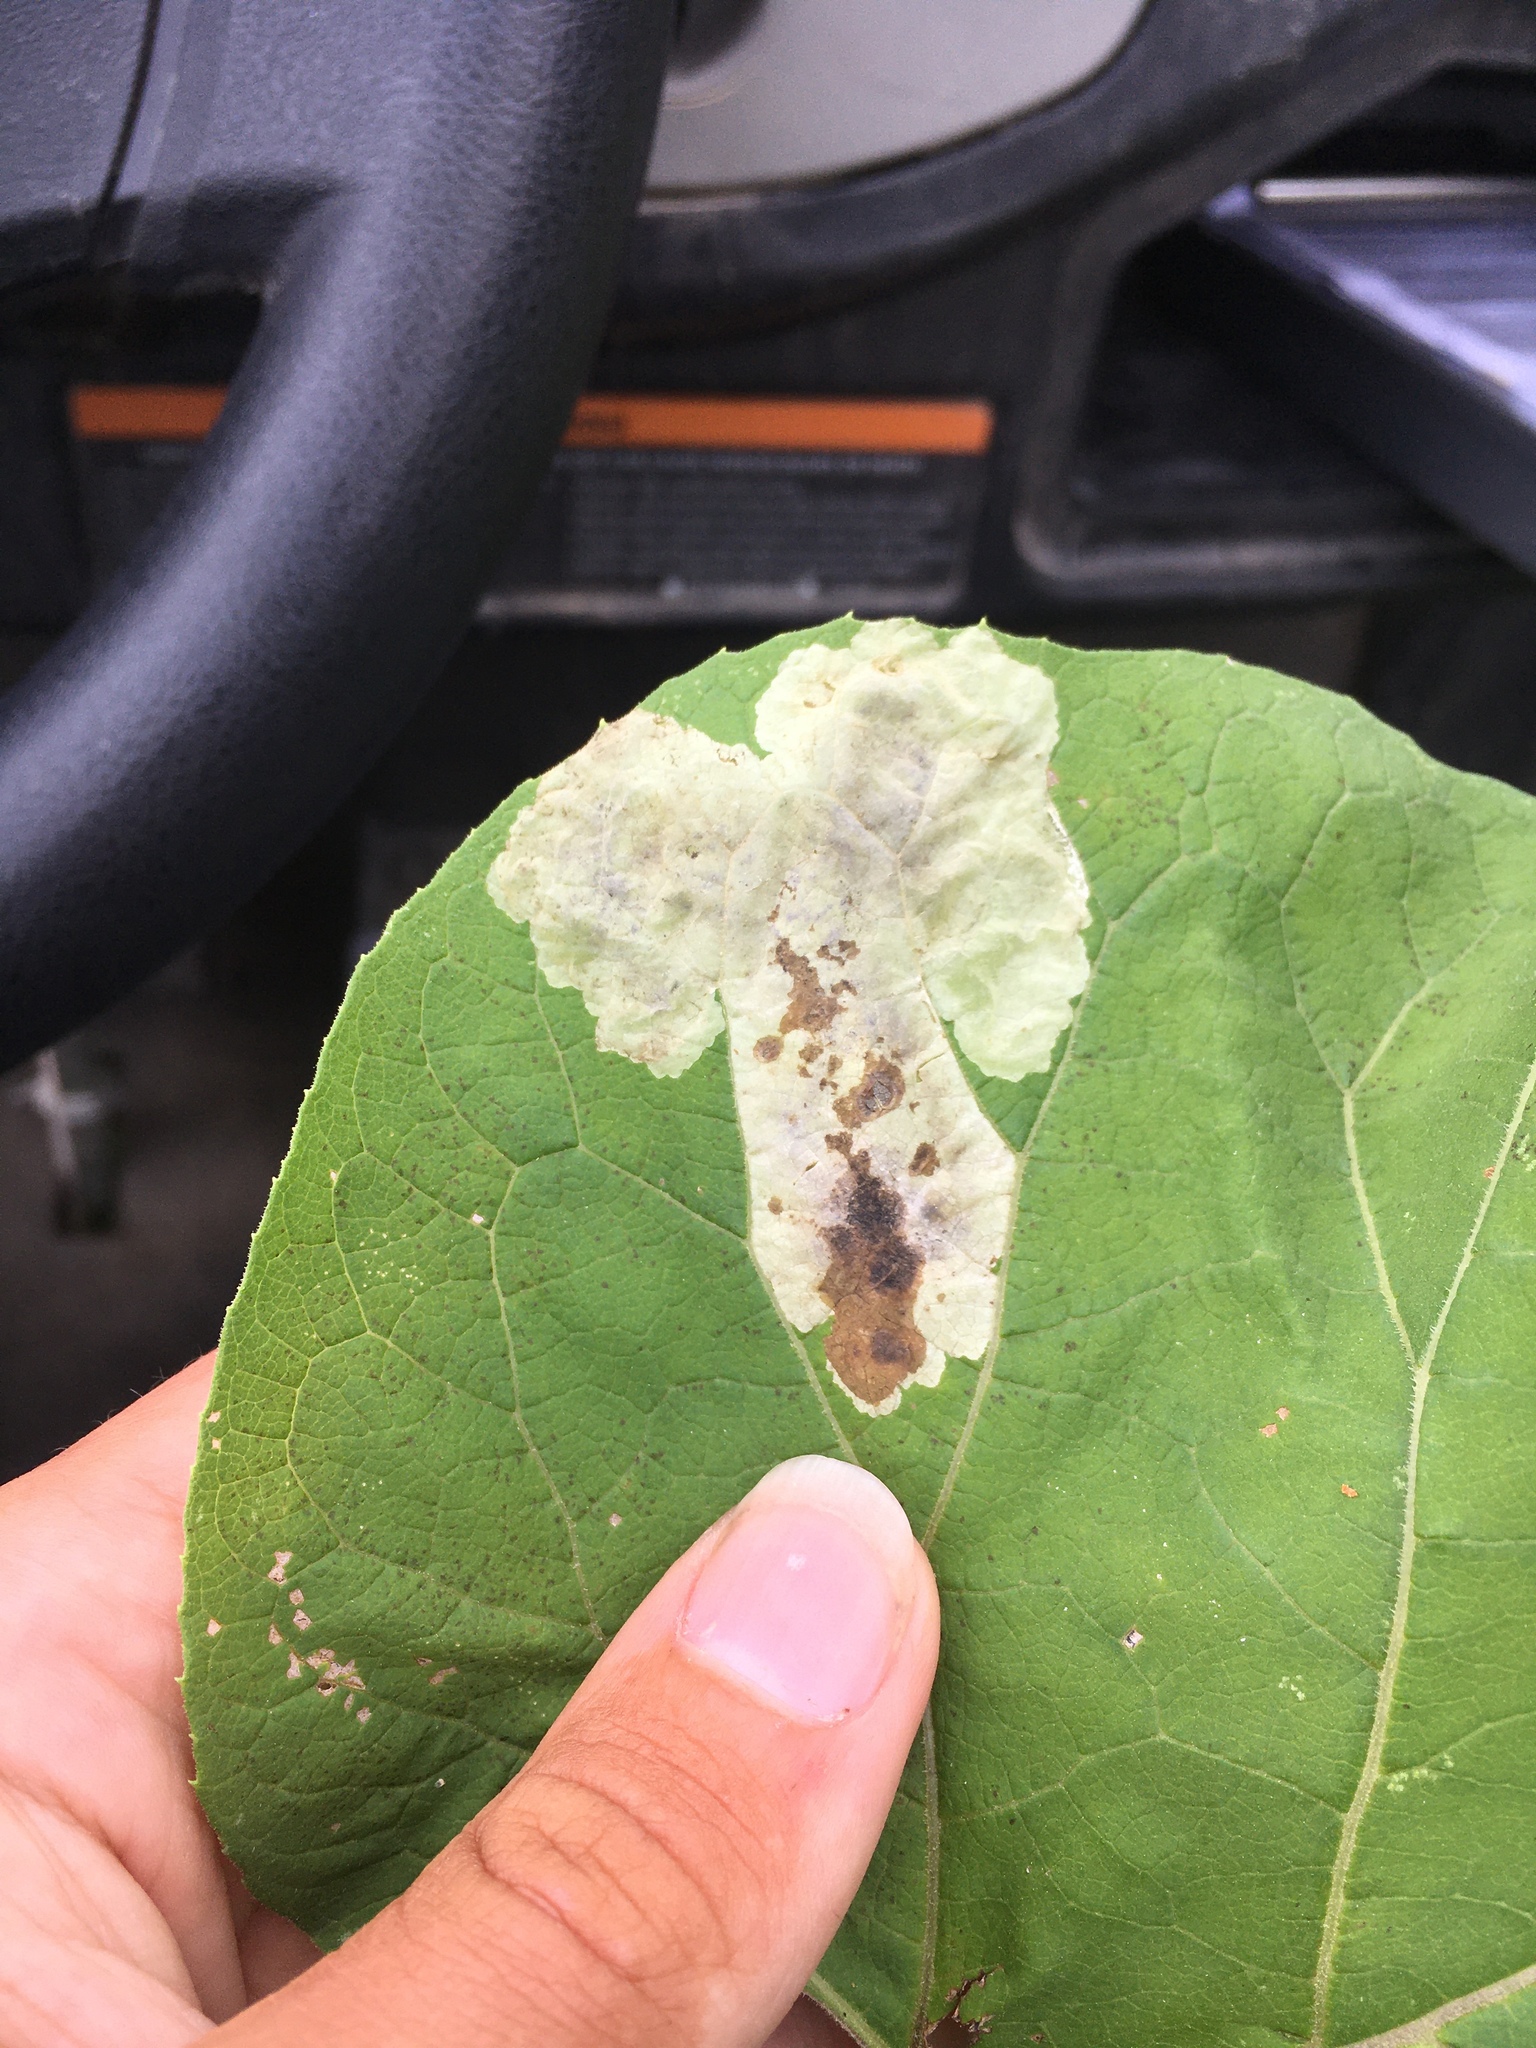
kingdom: Animalia
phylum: Arthropoda
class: Insecta
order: Diptera
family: Agromyzidae
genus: Calycomyza
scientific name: Calycomyza flavinotum
